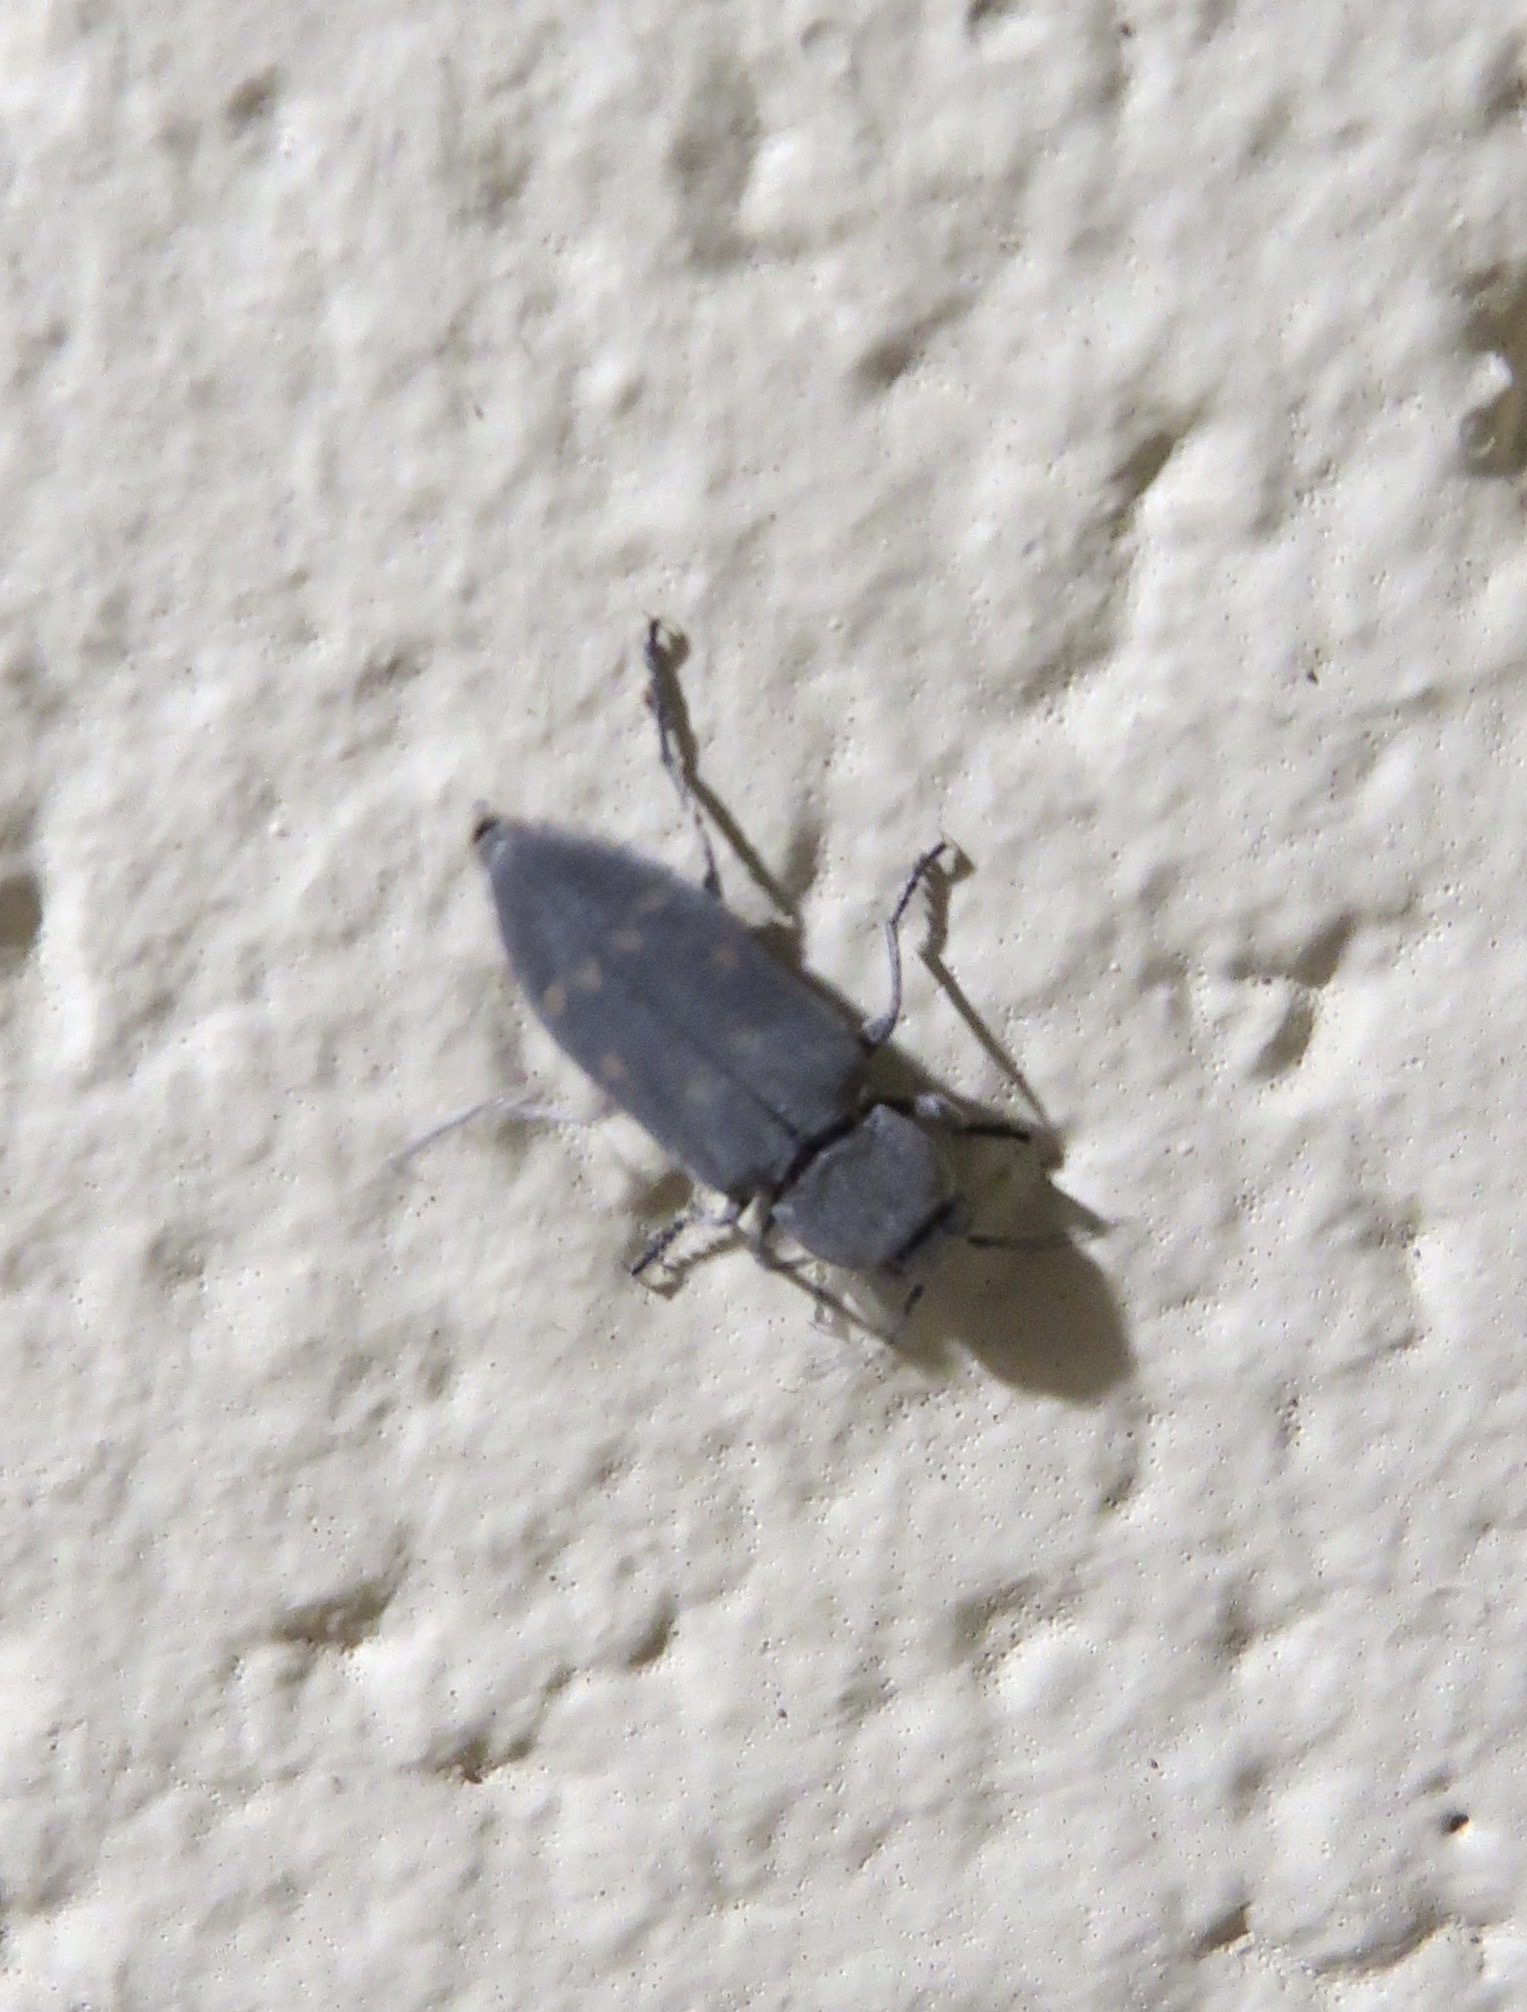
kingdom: Animalia
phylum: Arthropoda
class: Insecta
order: Coleoptera
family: Buprestidae
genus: Melanophila
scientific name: Melanophila consputa
